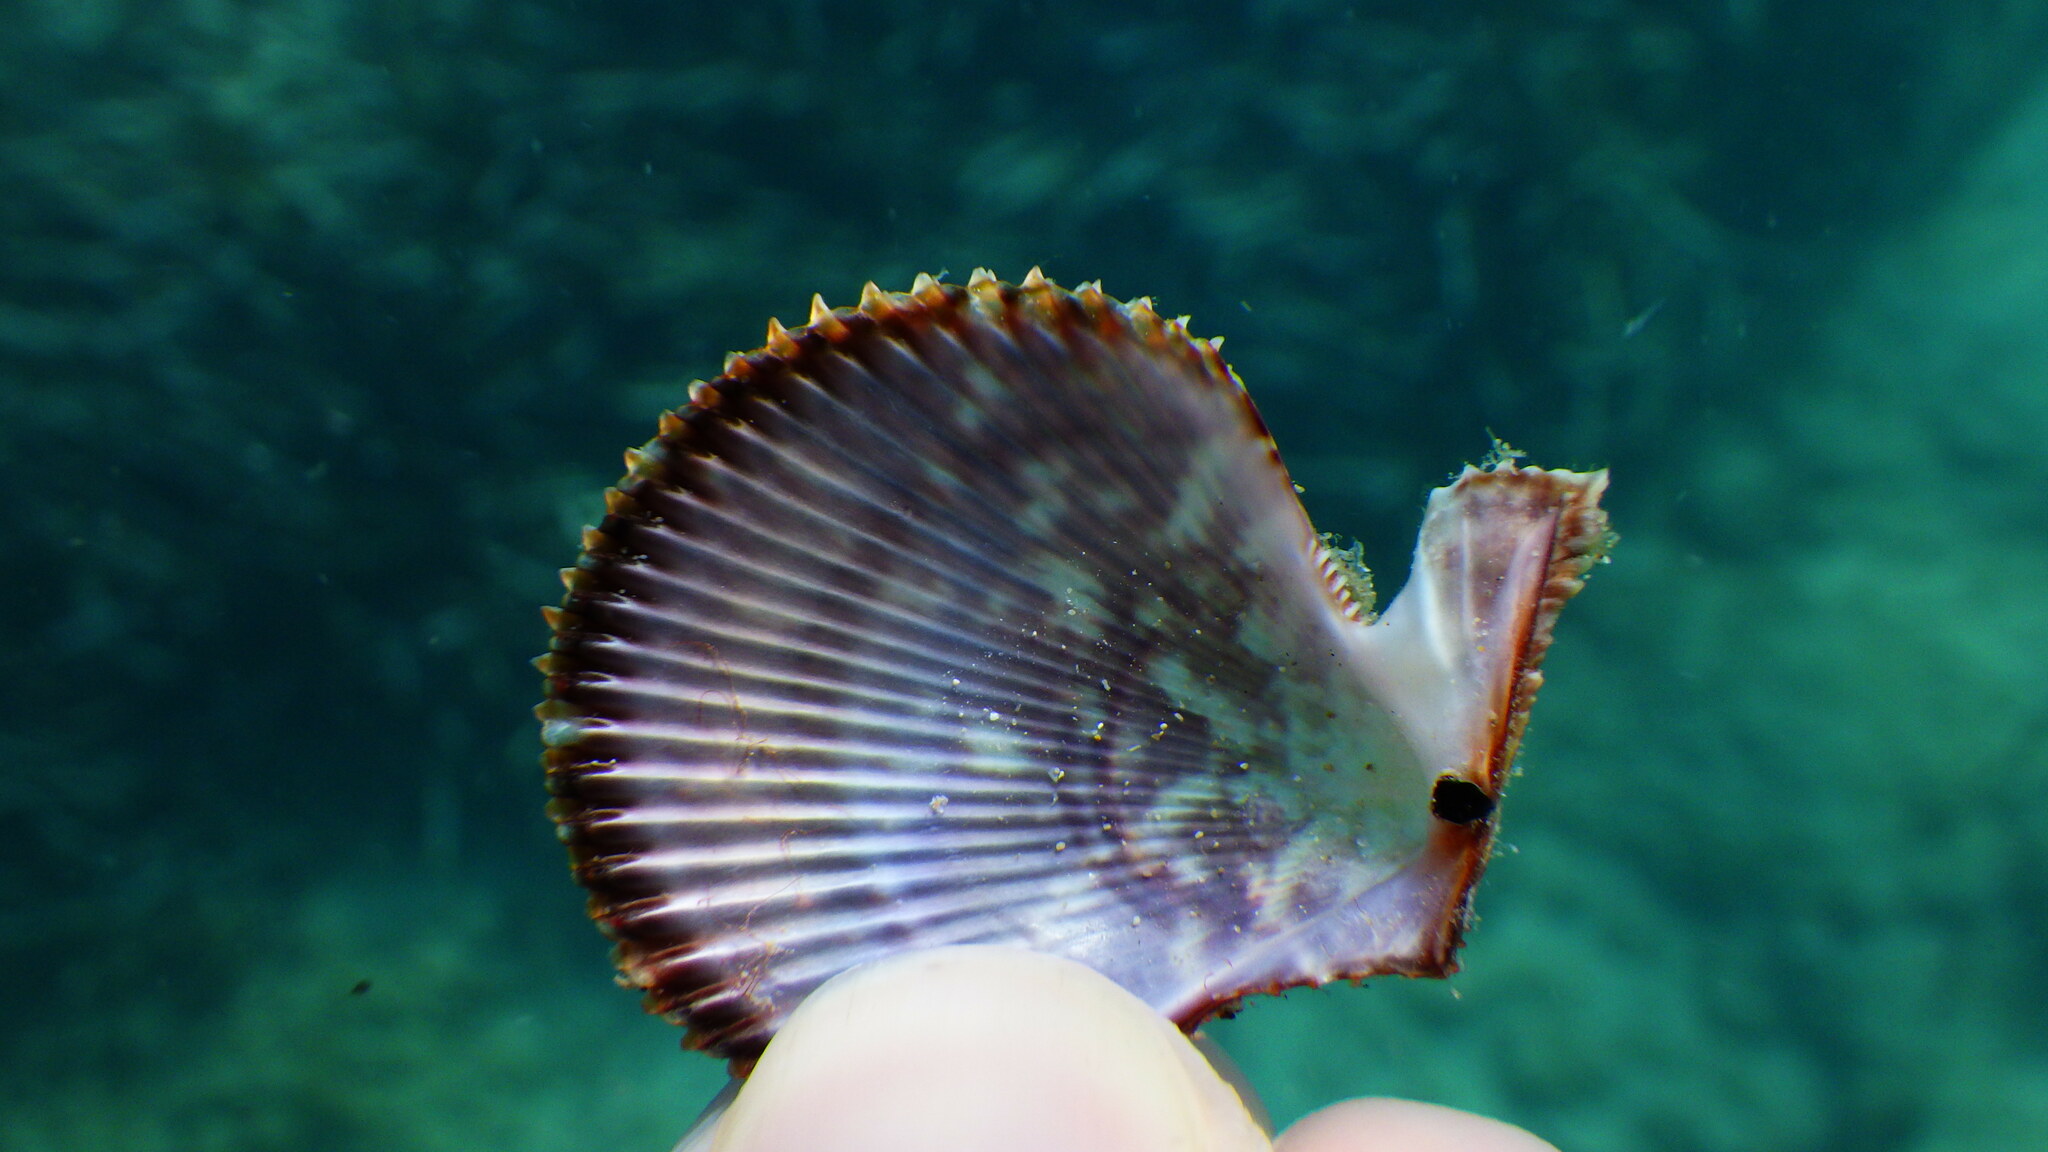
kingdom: Animalia
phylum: Mollusca
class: Bivalvia
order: Pectinida
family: Pectinidae
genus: Mimachlamys
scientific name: Mimachlamys varia
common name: Variegated scallop
